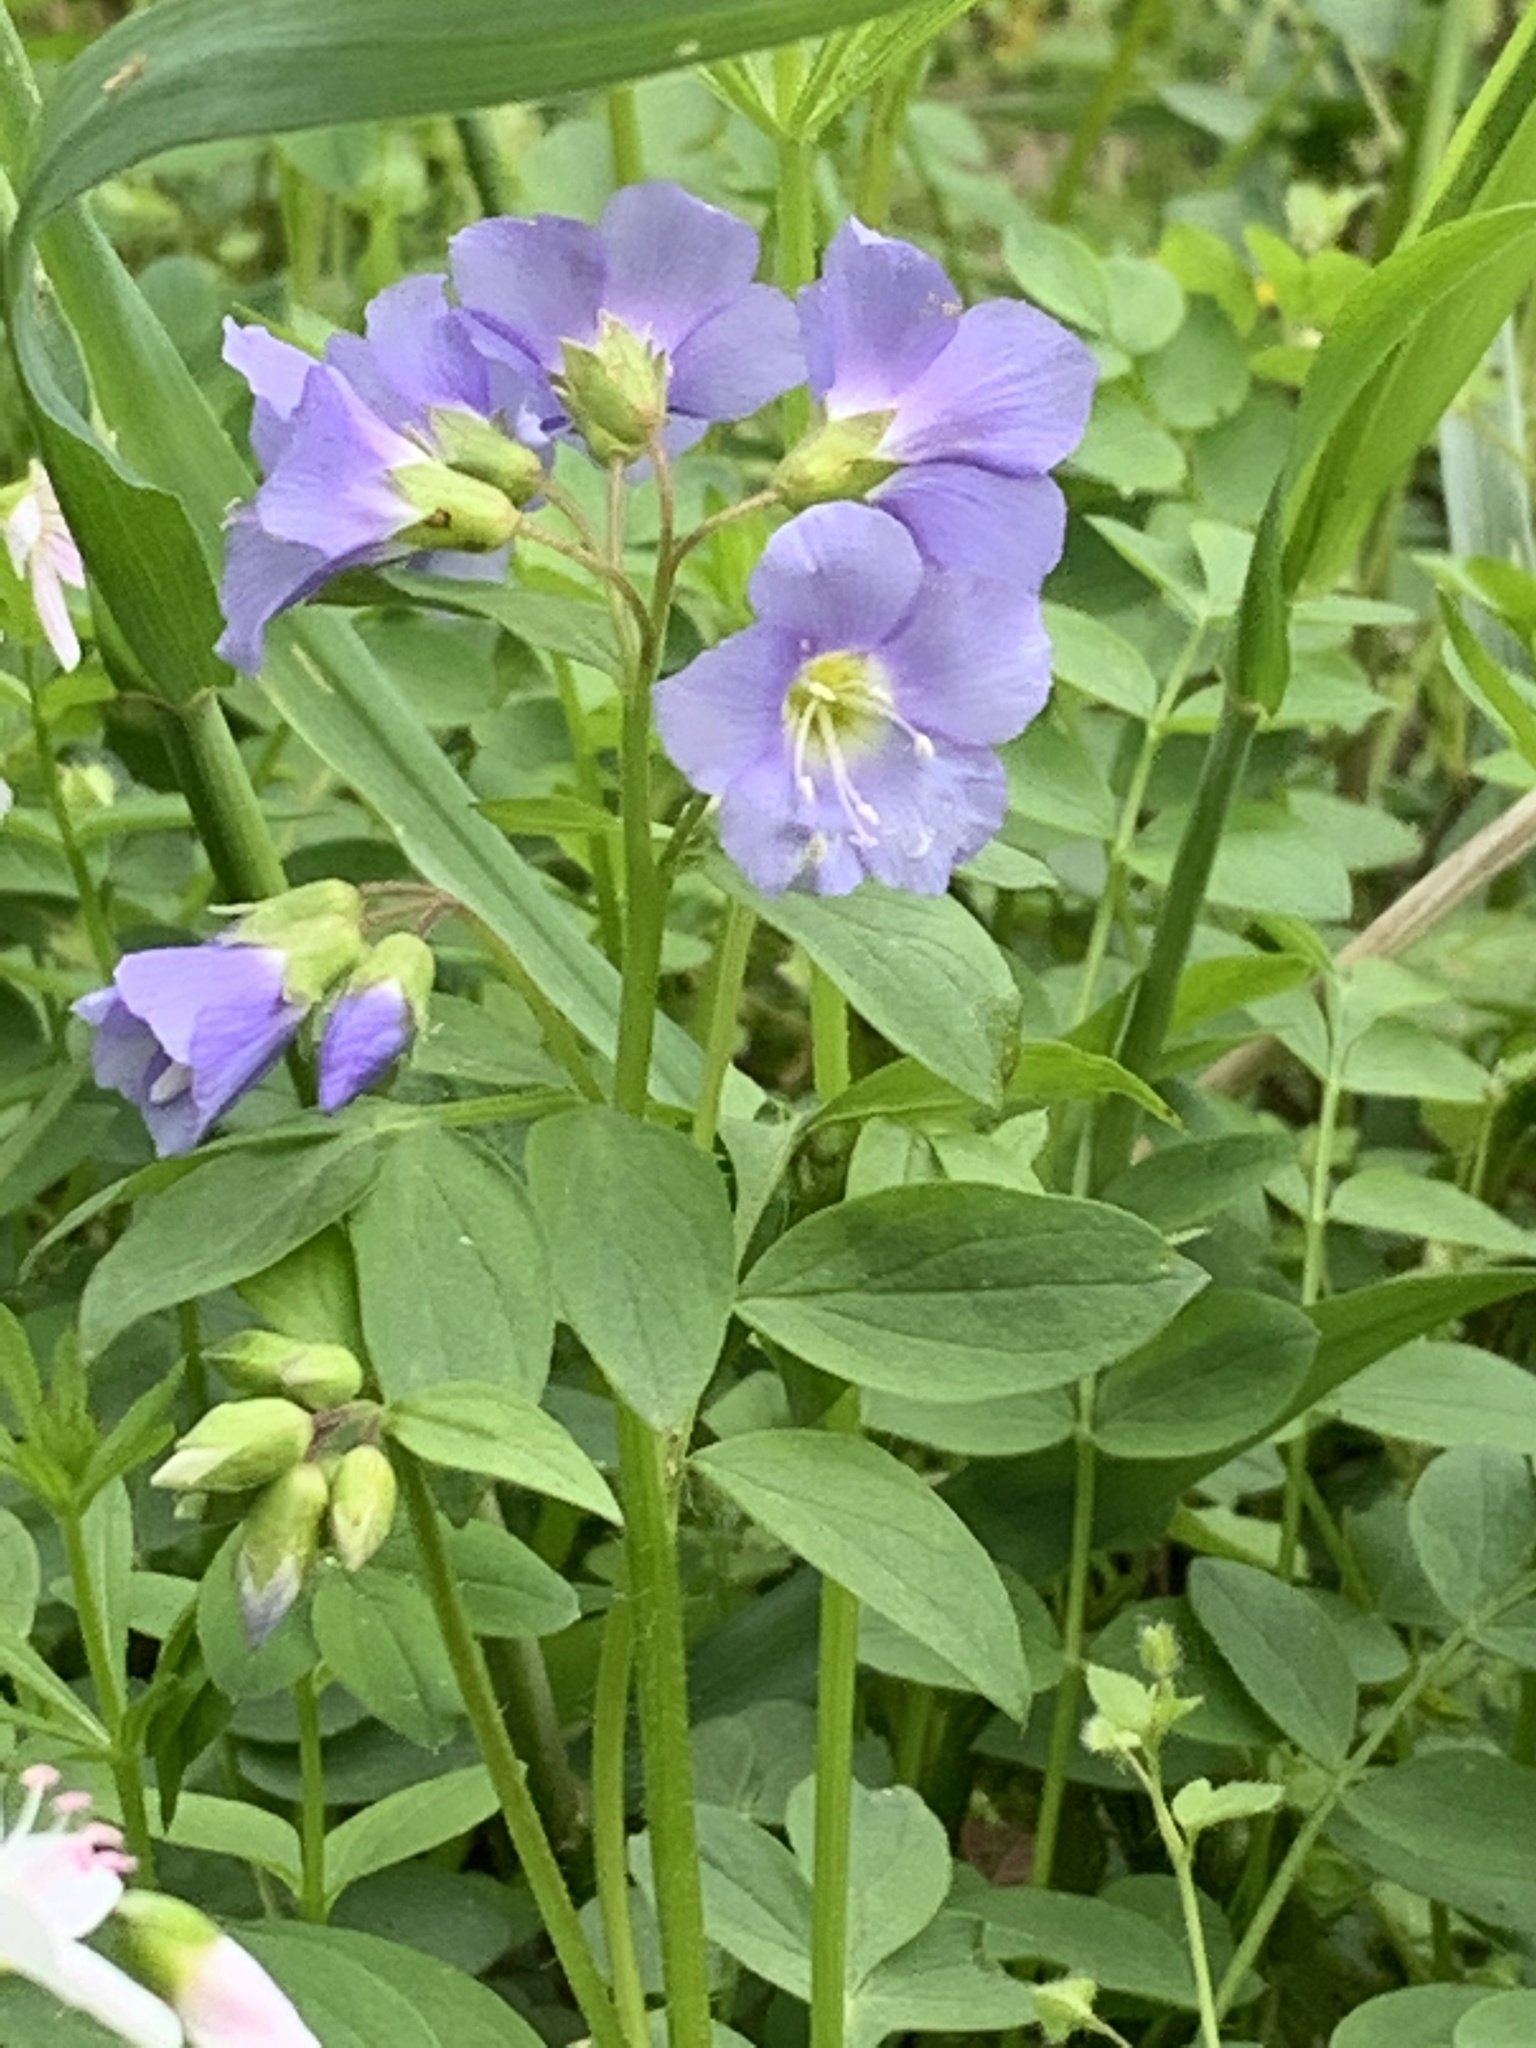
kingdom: Plantae
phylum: Tracheophyta
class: Magnoliopsida
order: Ericales
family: Polemoniaceae
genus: Polemonium
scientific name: Polemonium reptans
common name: Creeping jacob's-ladder
